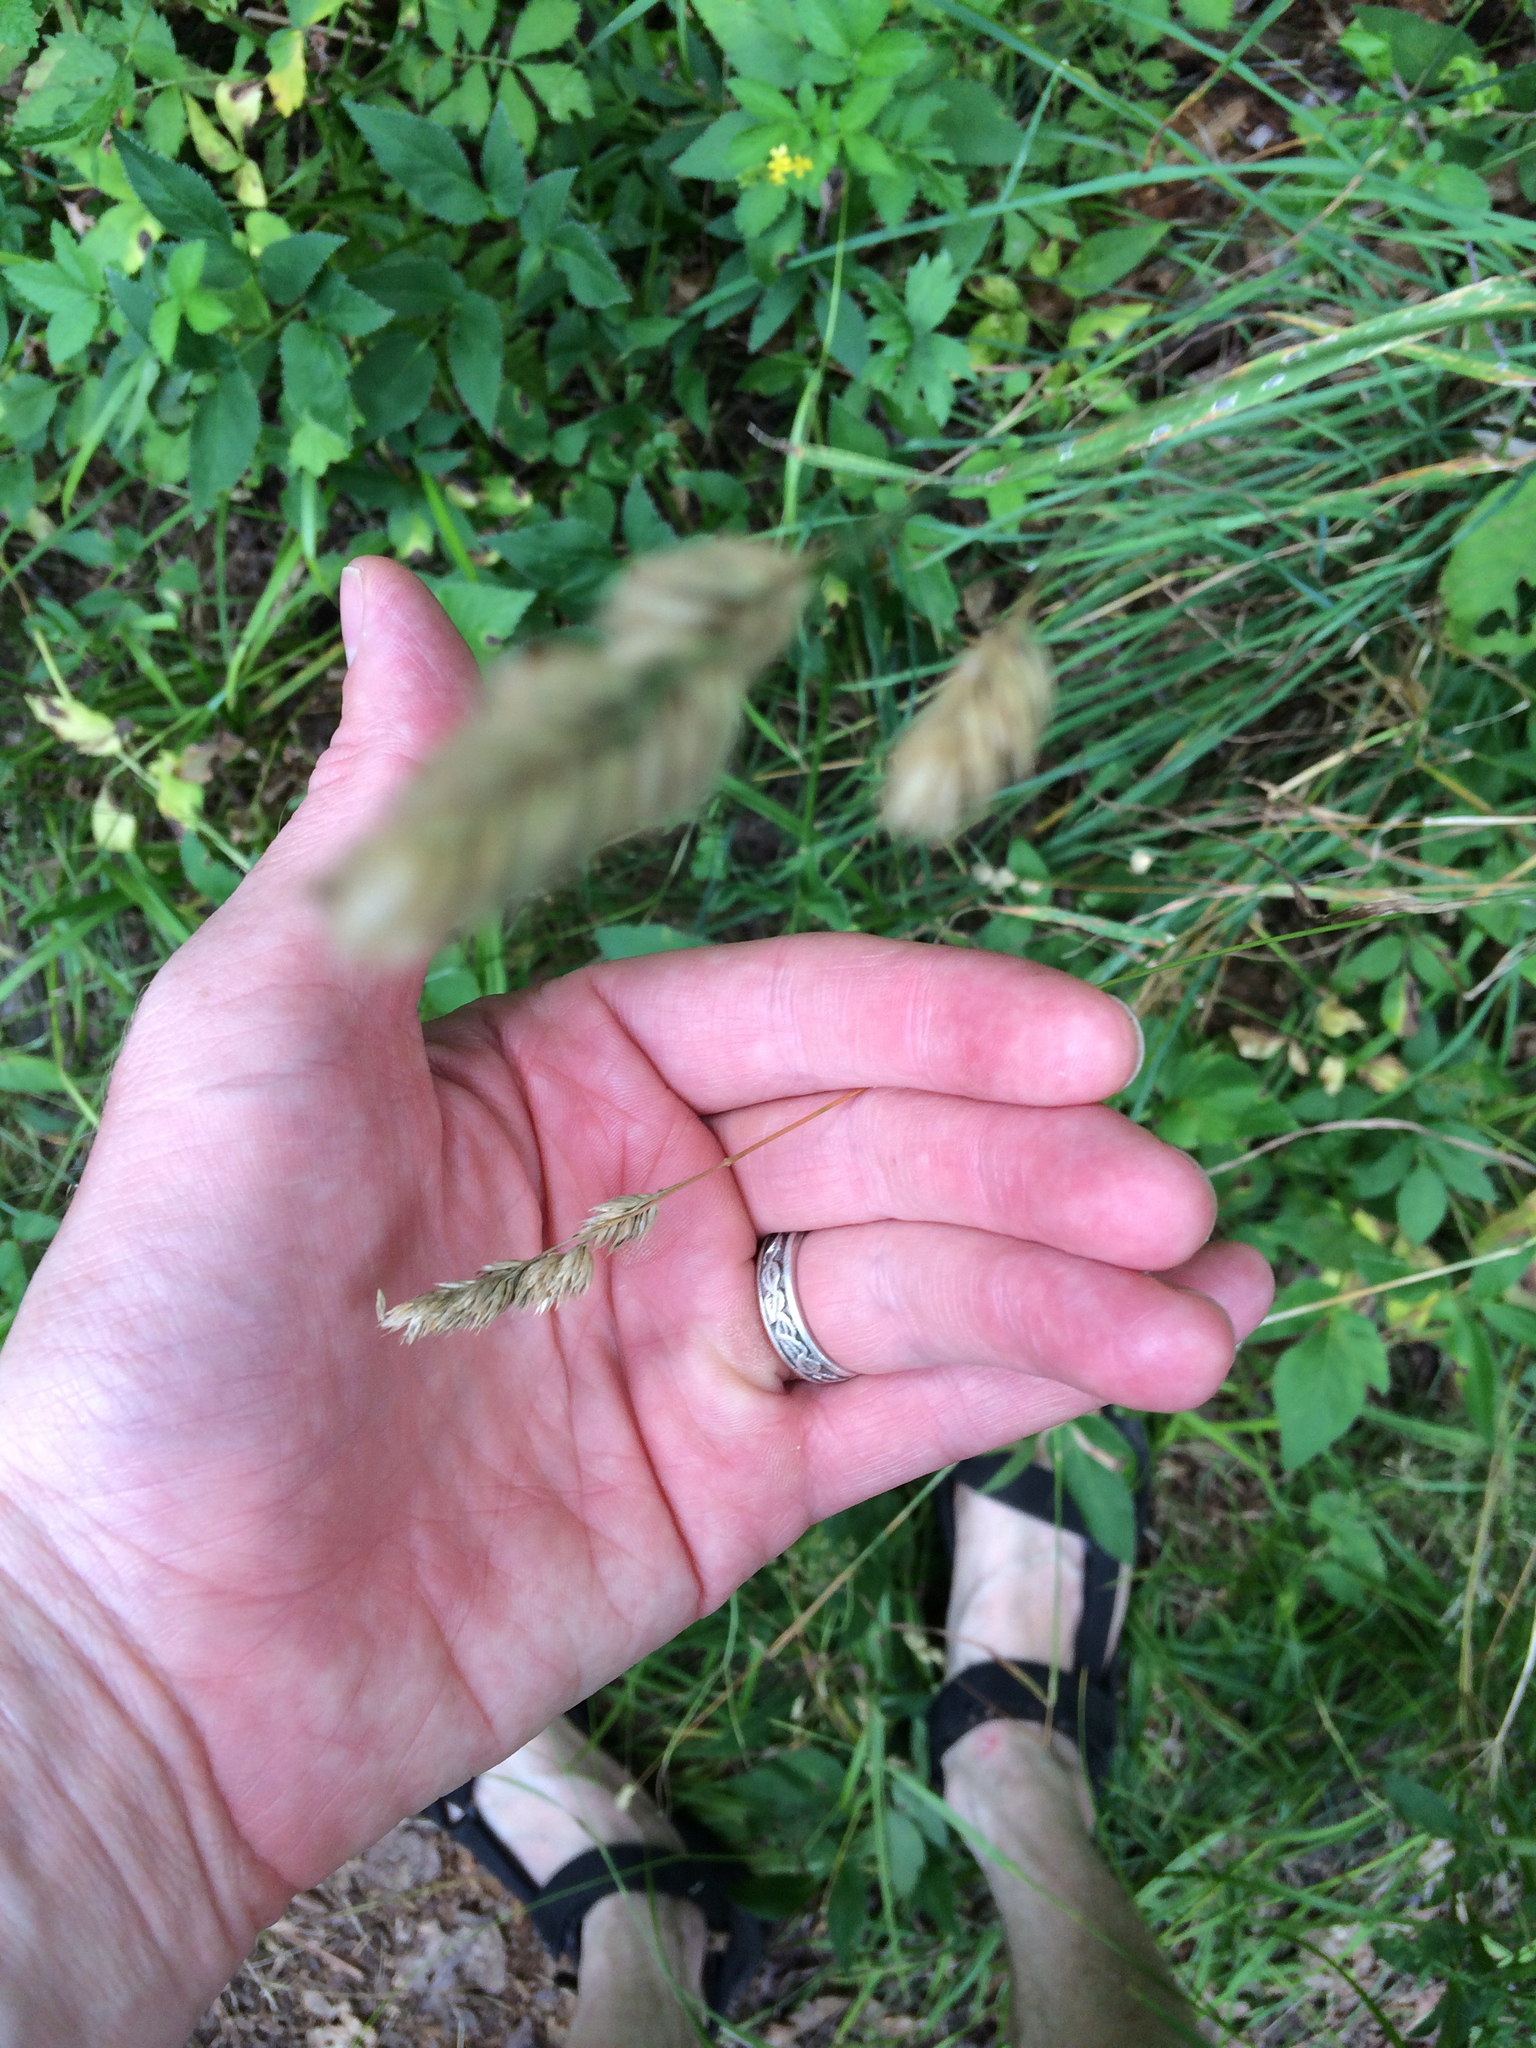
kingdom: Plantae
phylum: Tracheophyta
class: Liliopsida
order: Poales
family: Poaceae
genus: Dactylis
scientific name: Dactylis glomerata
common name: Orchardgrass
